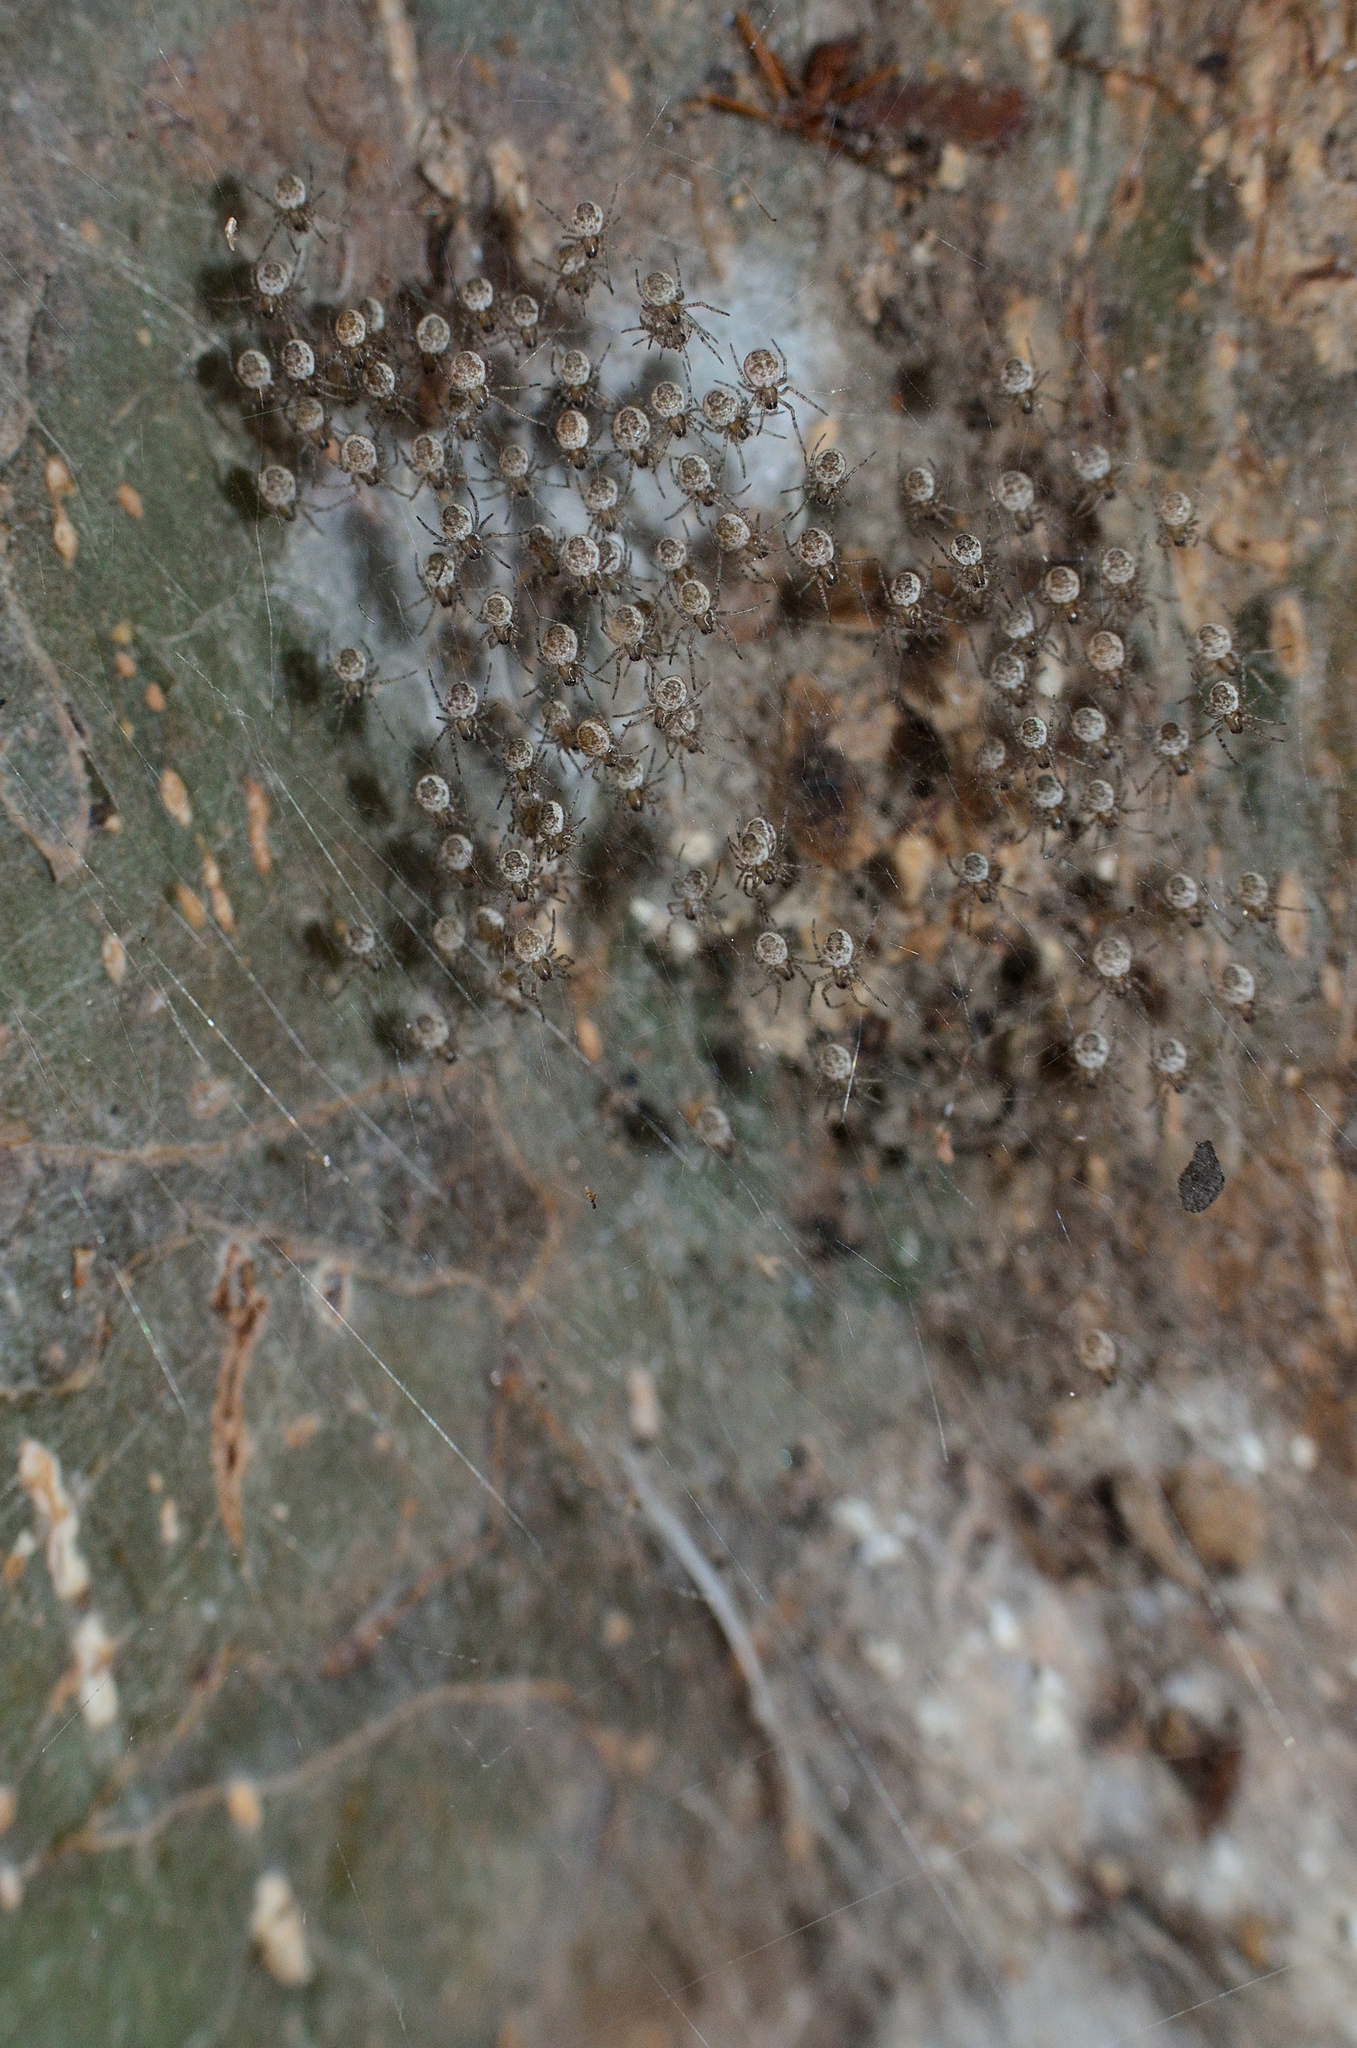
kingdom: Animalia
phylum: Arthropoda
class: Arachnida
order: Araneae
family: Araneidae
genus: Herennia
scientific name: Herennia multipuncta
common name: Spotted coin spider
